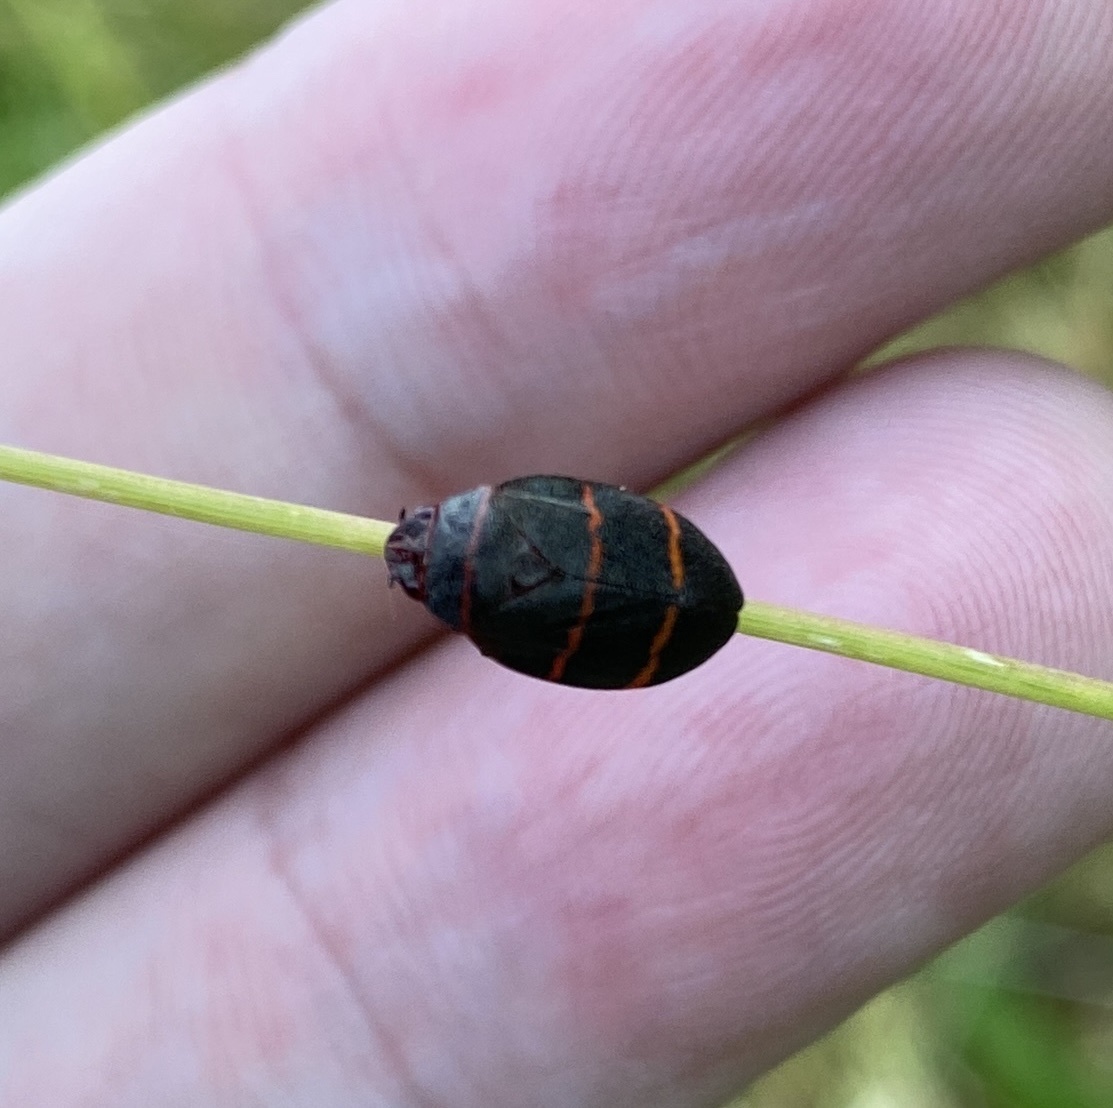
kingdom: Animalia
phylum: Arthropoda
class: Insecta
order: Hemiptera
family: Cercopidae
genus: Prosapia
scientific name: Prosapia bicincta
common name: Twolined spittlebug
